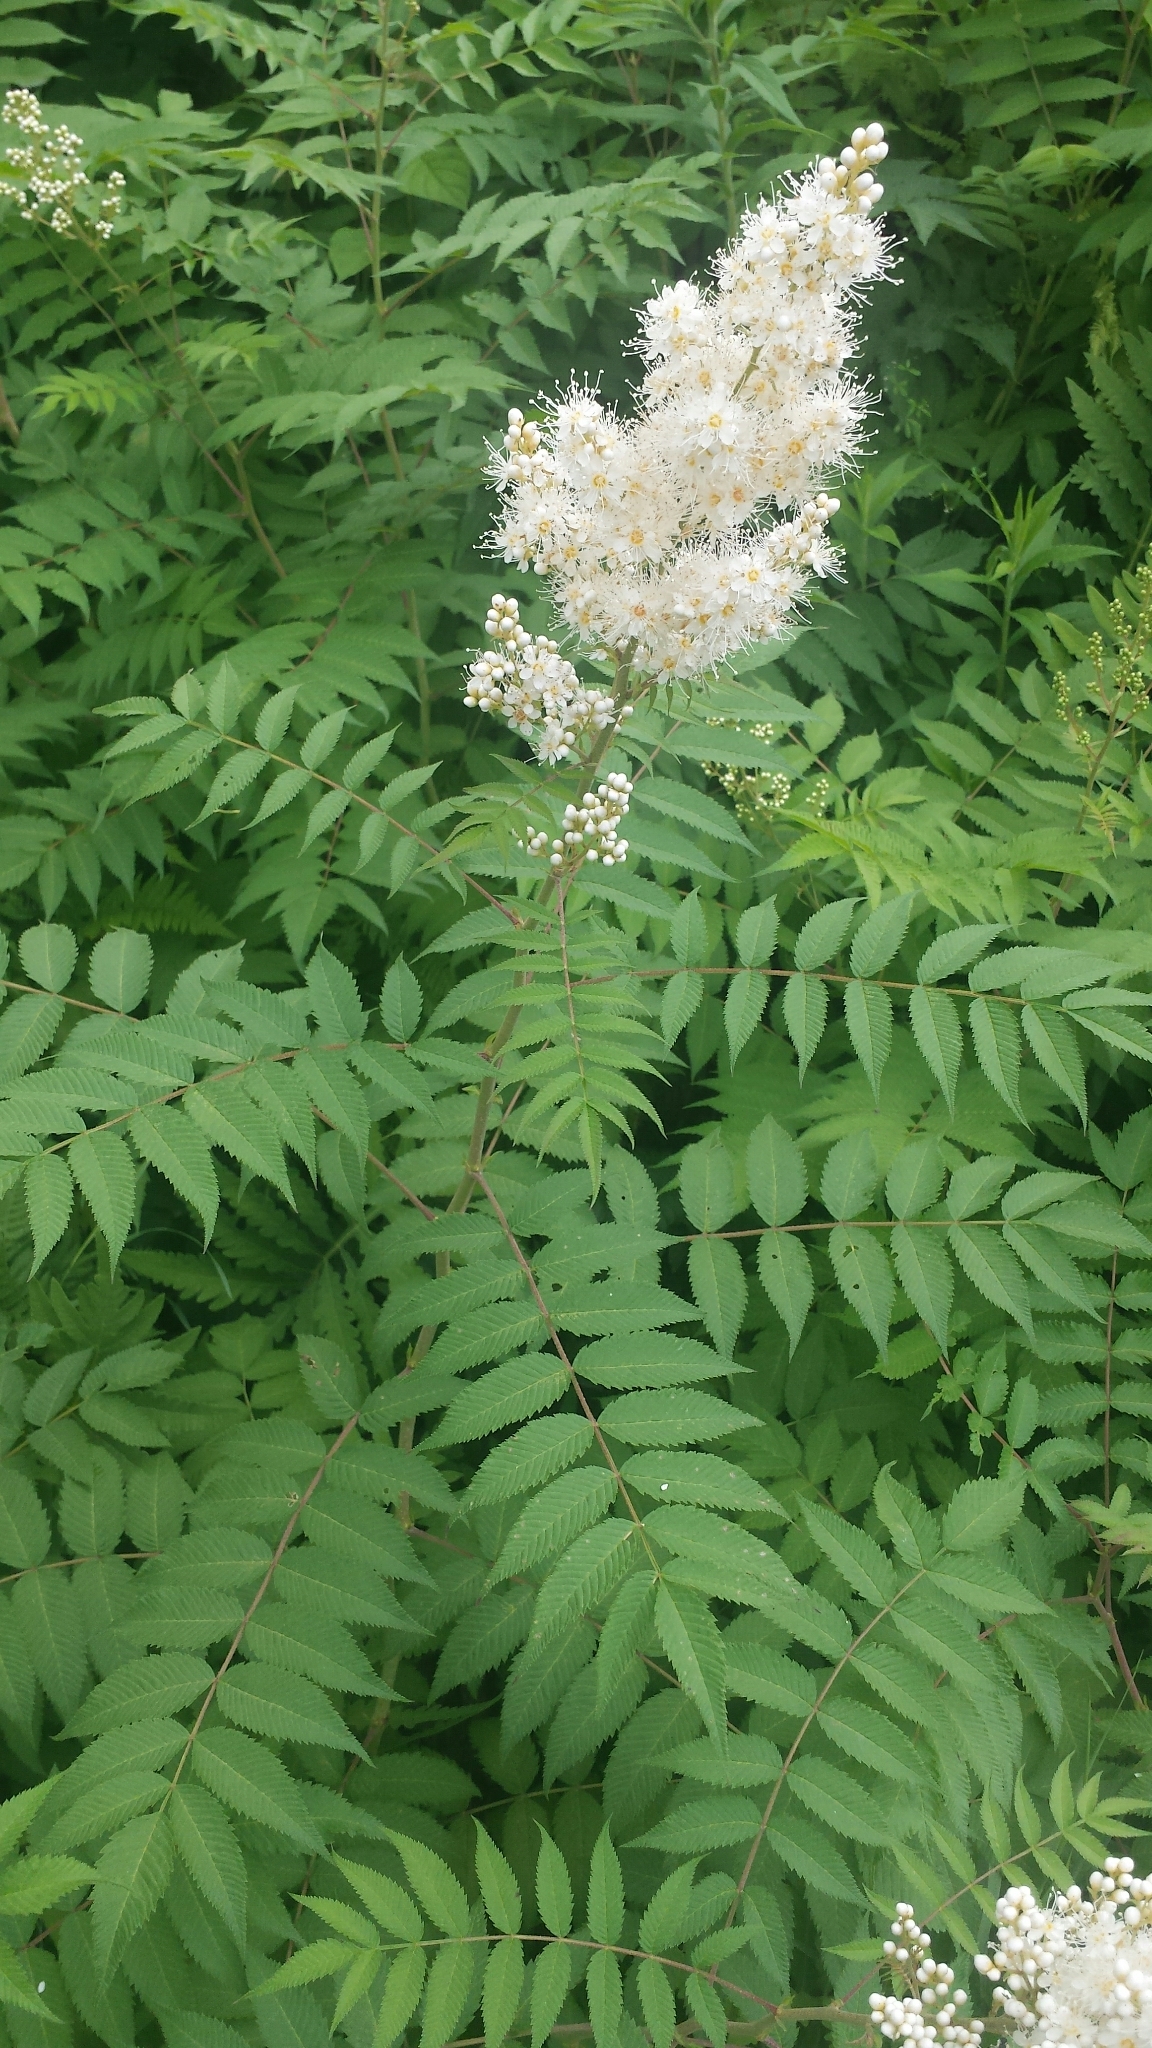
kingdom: Plantae
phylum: Tracheophyta
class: Magnoliopsida
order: Rosales
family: Rosaceae
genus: Sorbaria
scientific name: Sorbaria sorbifolia
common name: False spiraea
